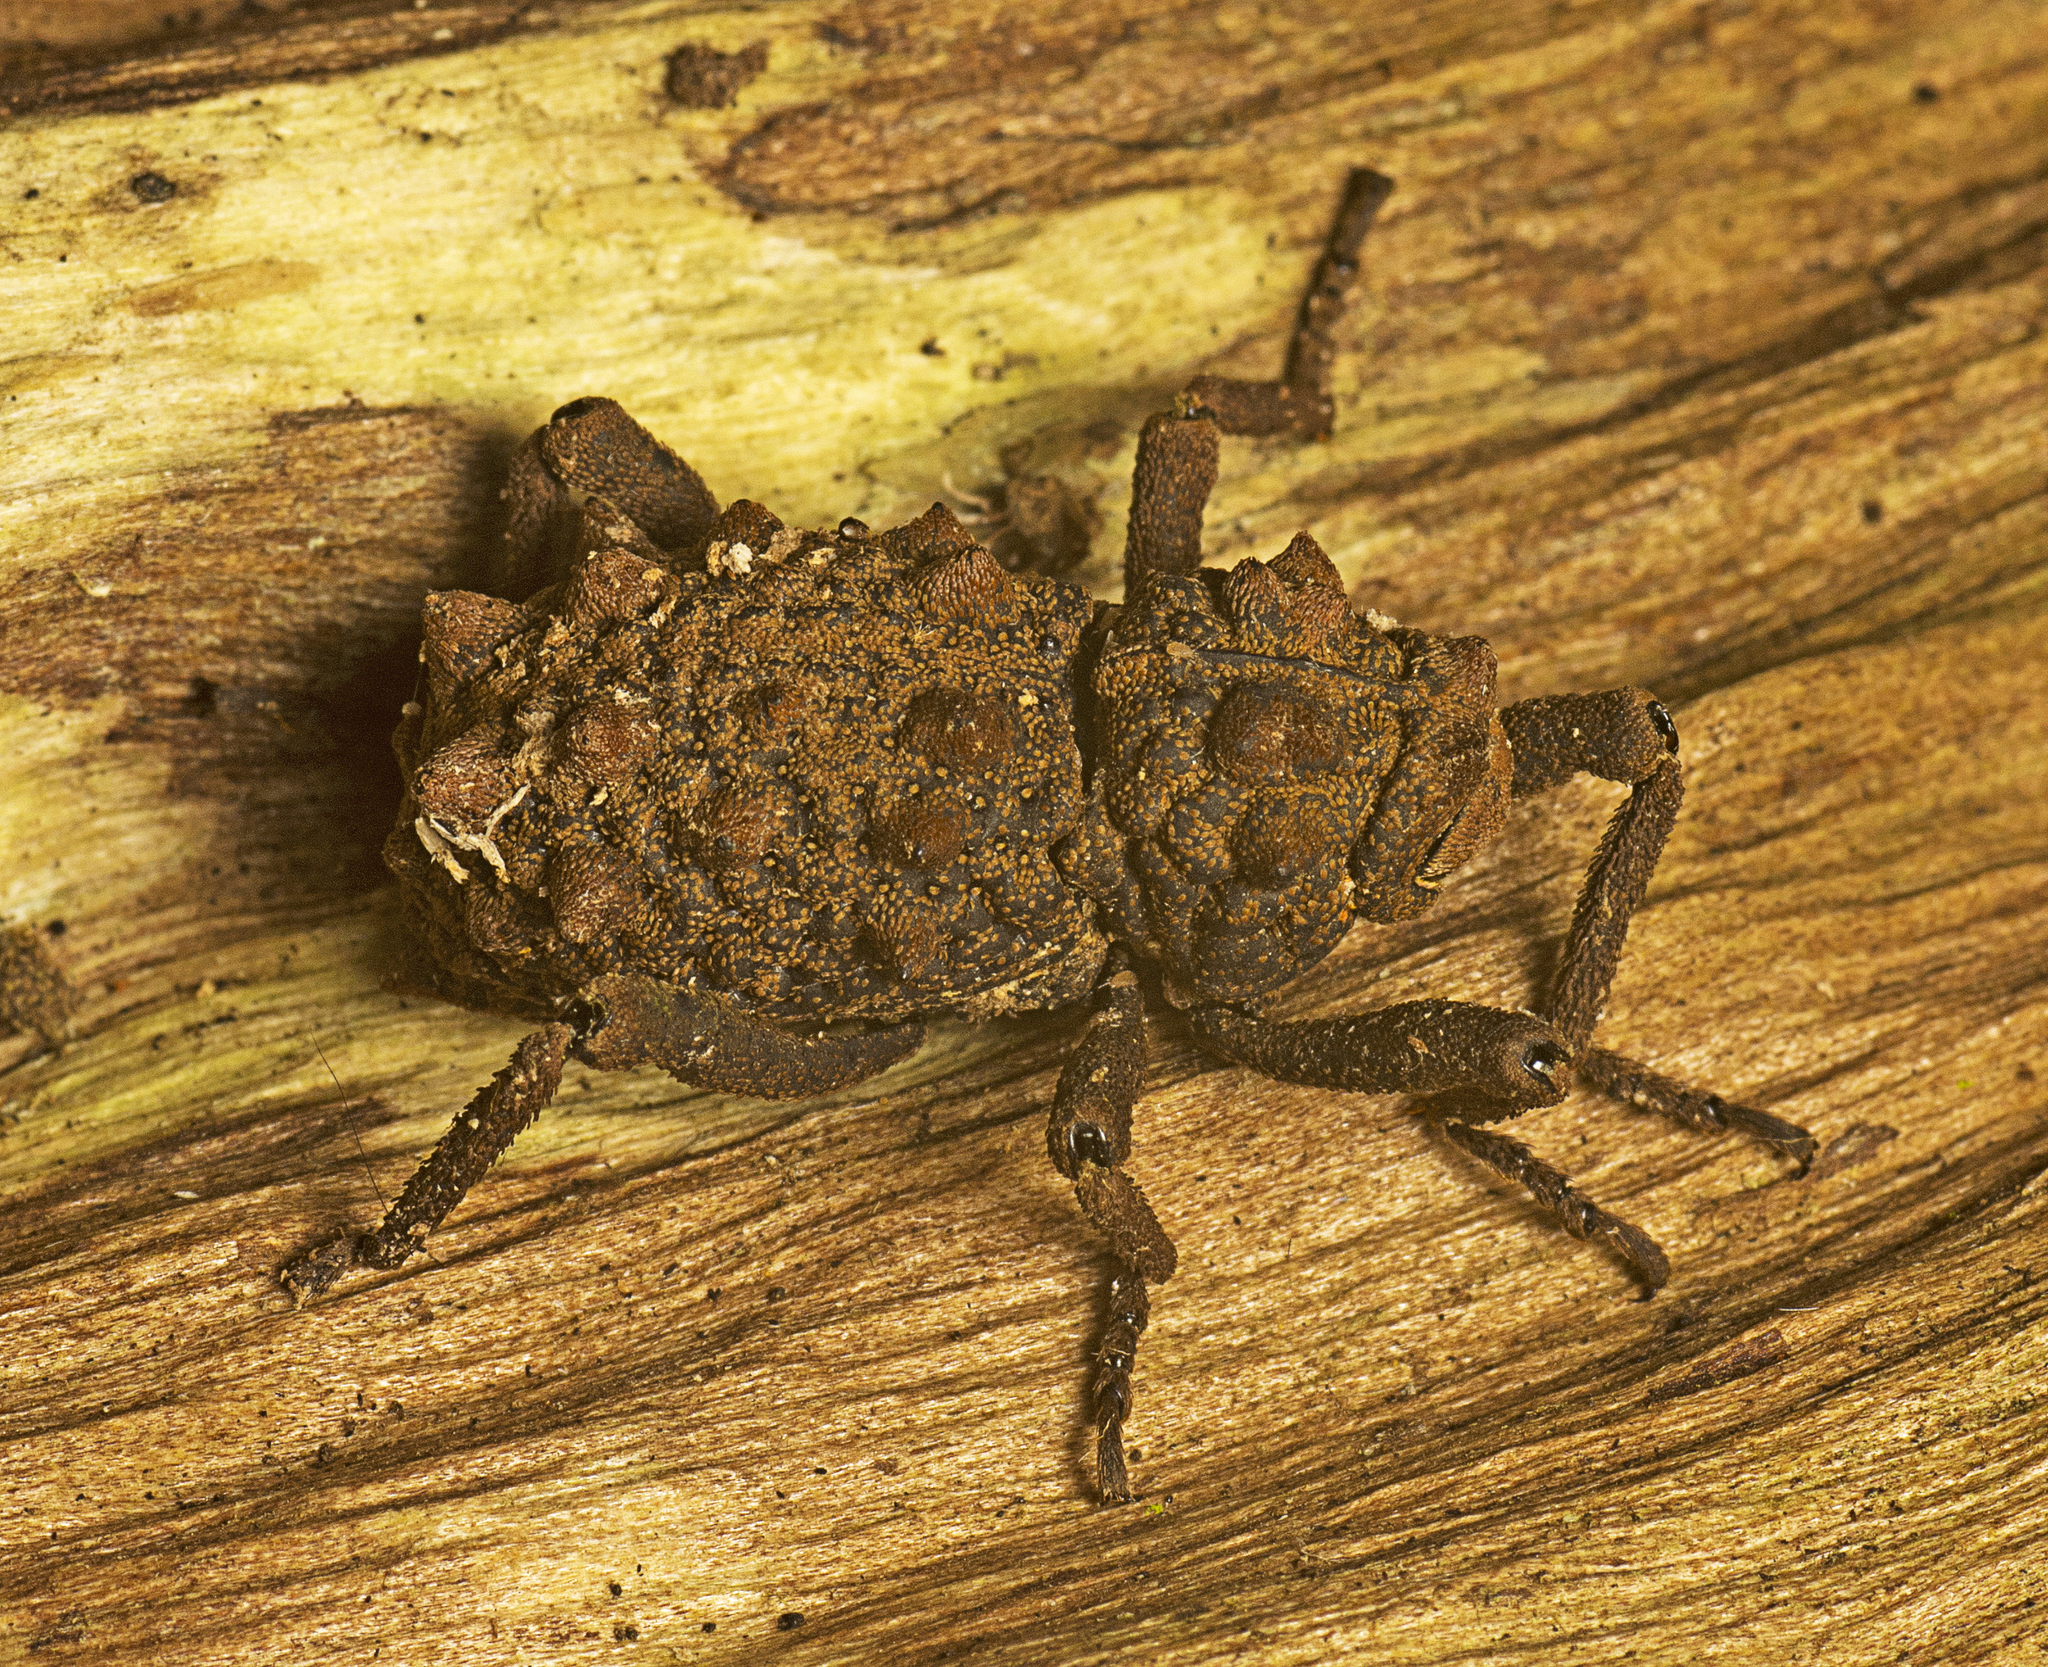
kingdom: Animalia
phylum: Arthropoda
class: Insecta
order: Coleoptera
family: Curculionidae
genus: Mormosintes
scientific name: Mormosintes rubus
